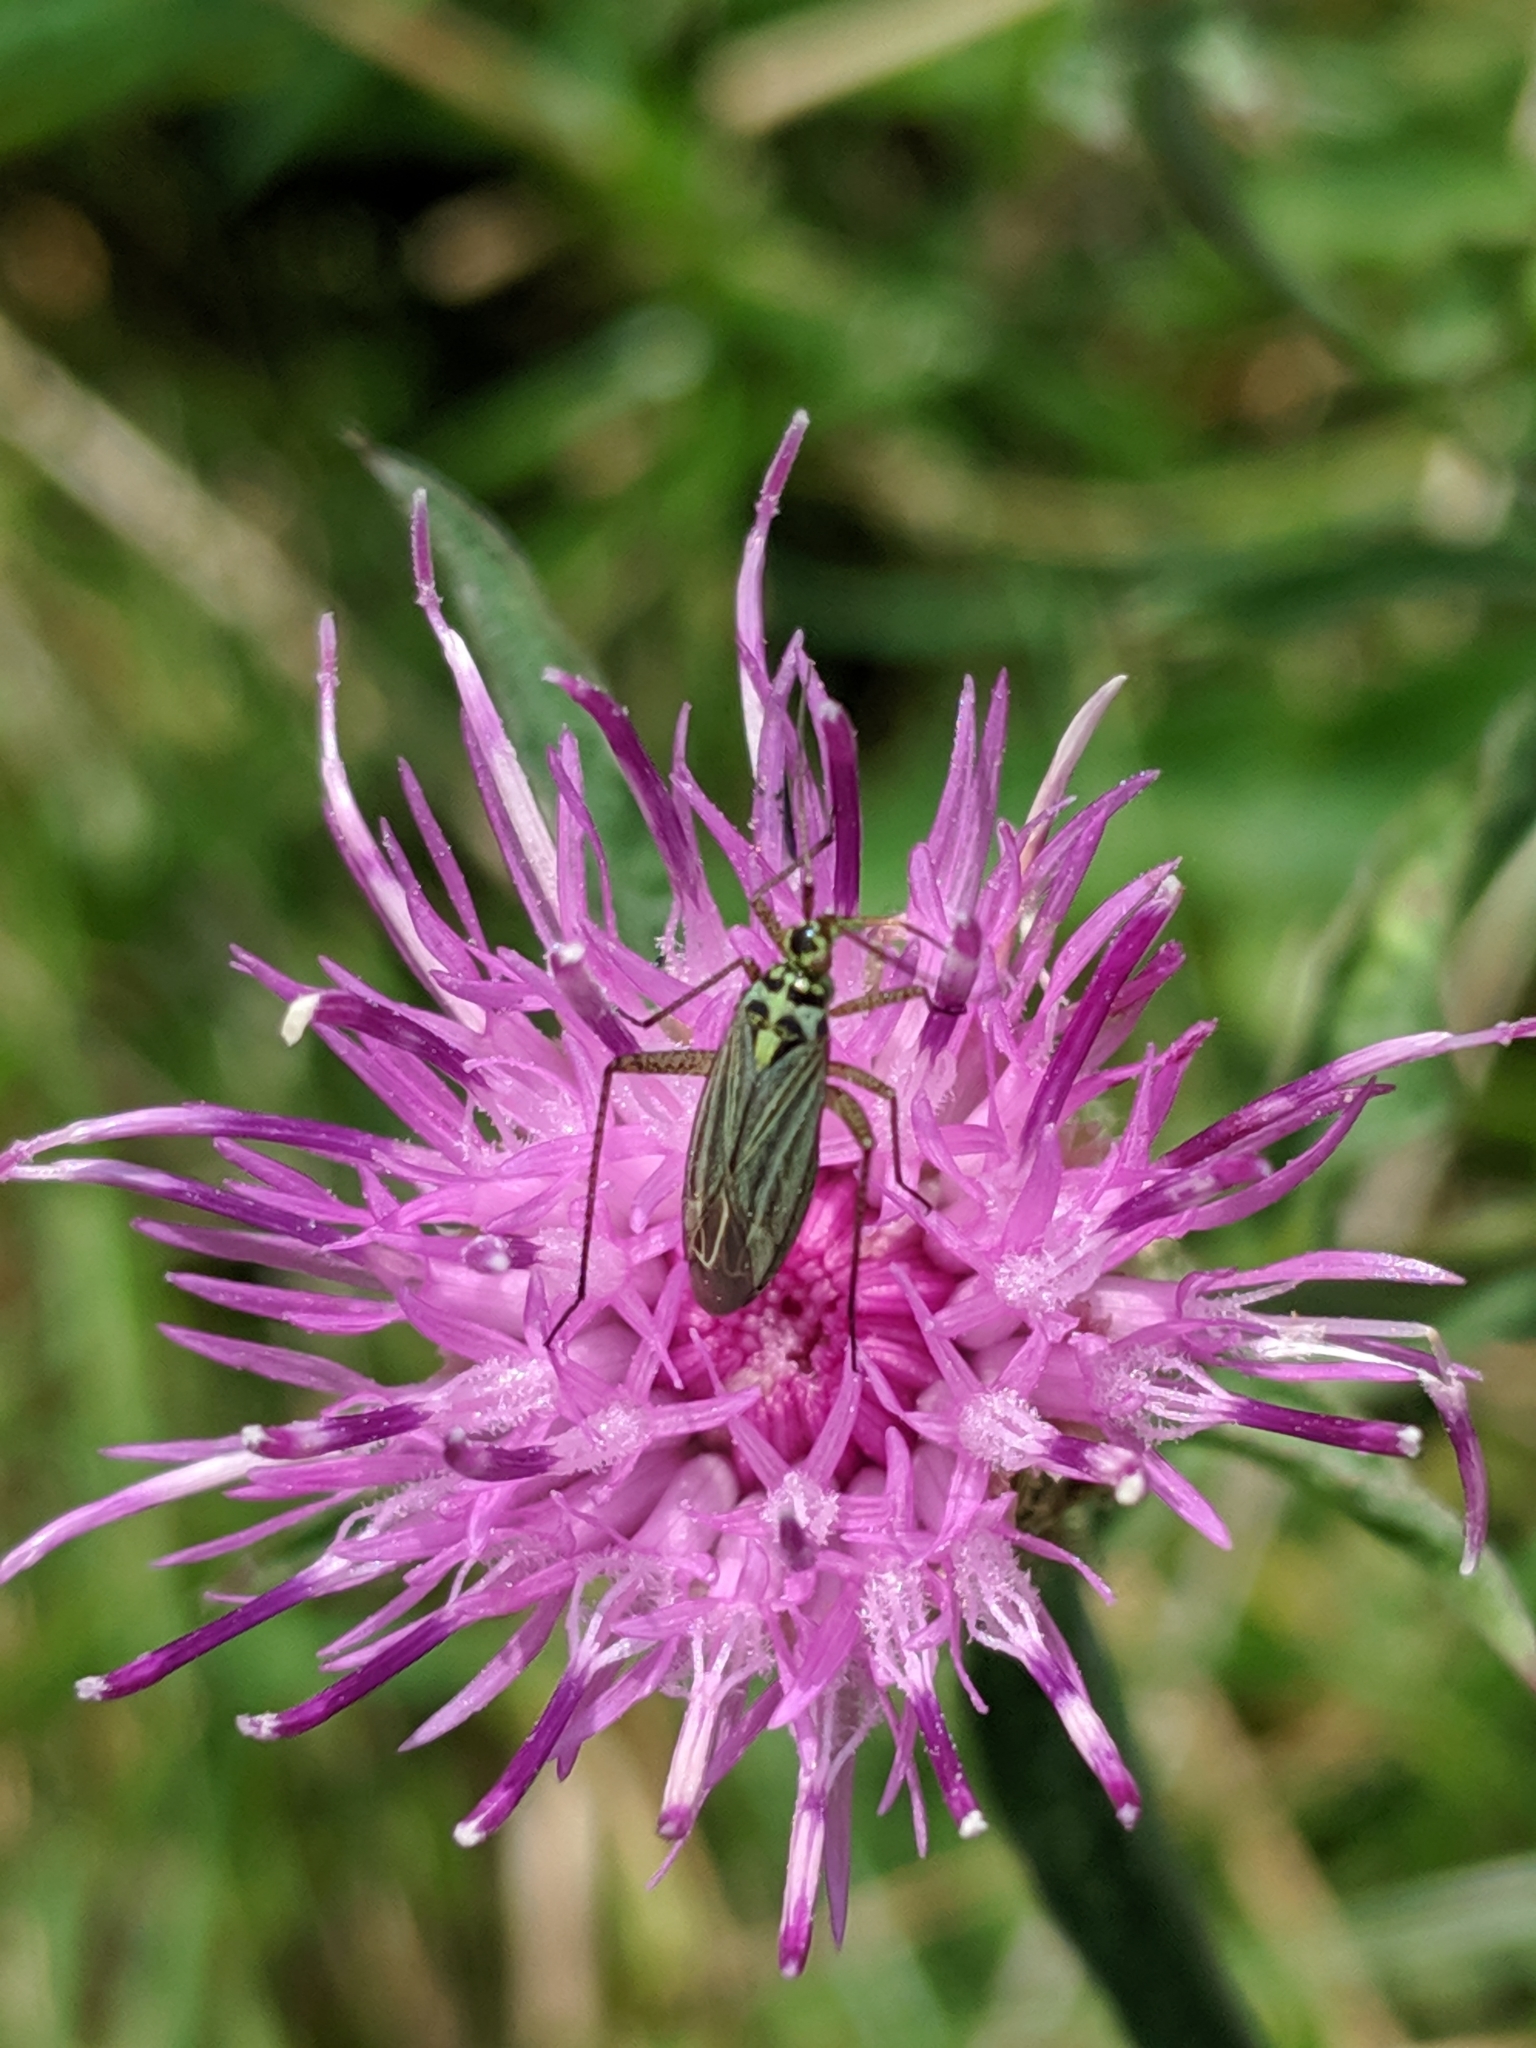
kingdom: Animalia
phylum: Arthropoda
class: Insecta
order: Hemiptera
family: Miridae
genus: Oncotylus
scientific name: Oncotylus viridiflavus
